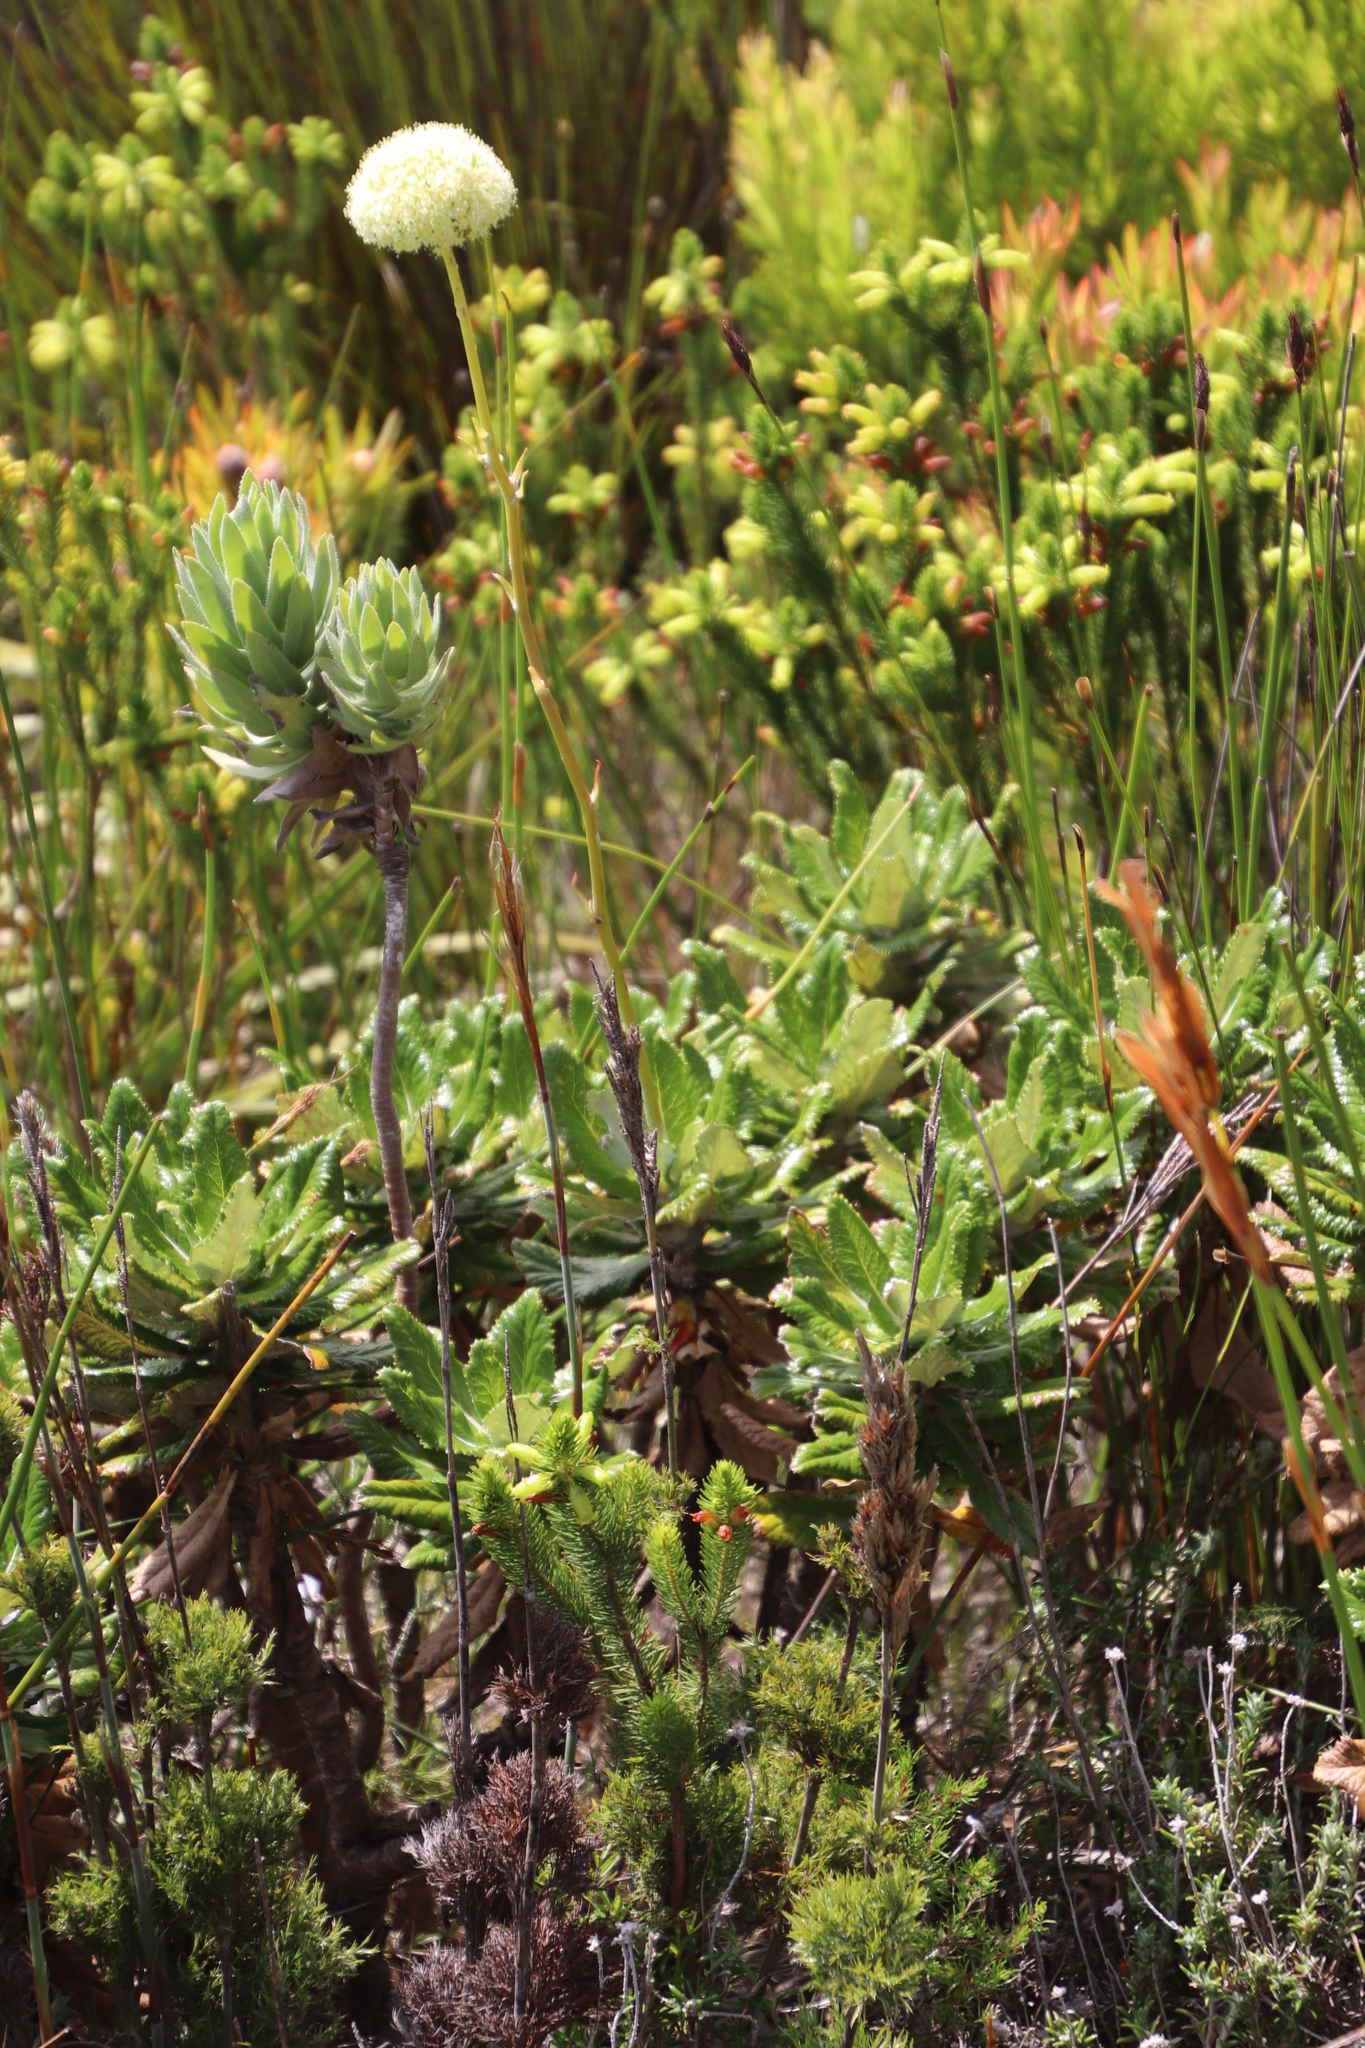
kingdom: Plantae
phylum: Tracheophyta
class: Magnoliopsida
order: Apiales
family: Apiaceae
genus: Hermas
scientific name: Hermas villosa
